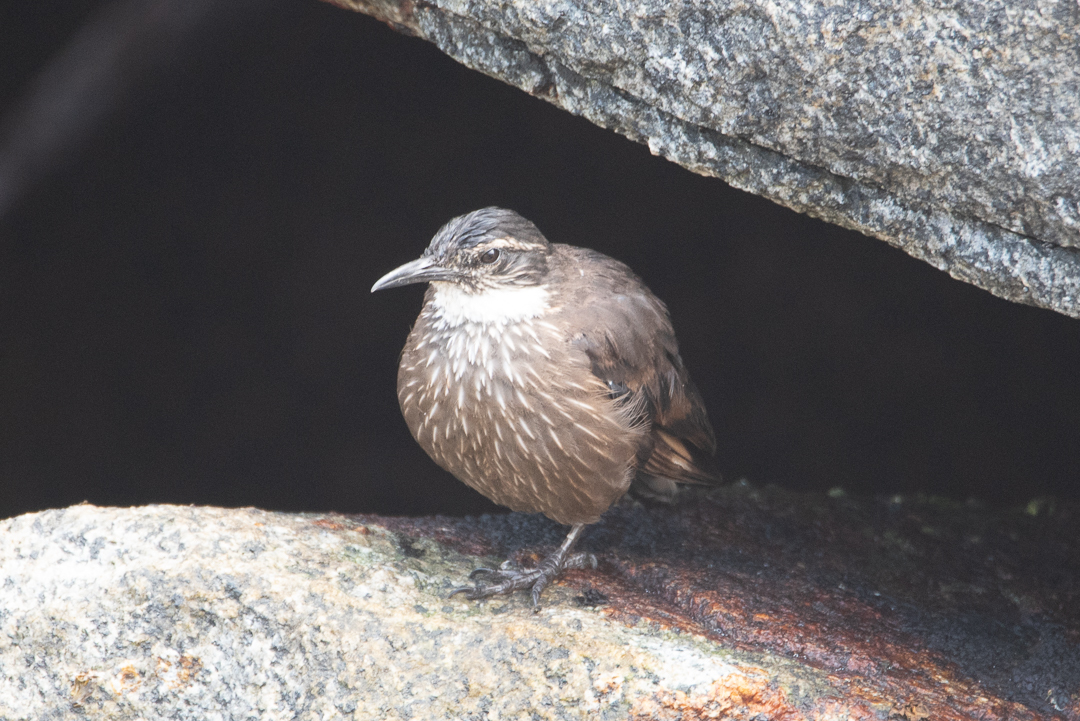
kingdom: Animalia
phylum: Chordata
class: Aves
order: Passeriformes
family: Furnariidae
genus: Cinclodes
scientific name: Cinclodes nigrofumosus
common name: Chilean seaside cinclodes
